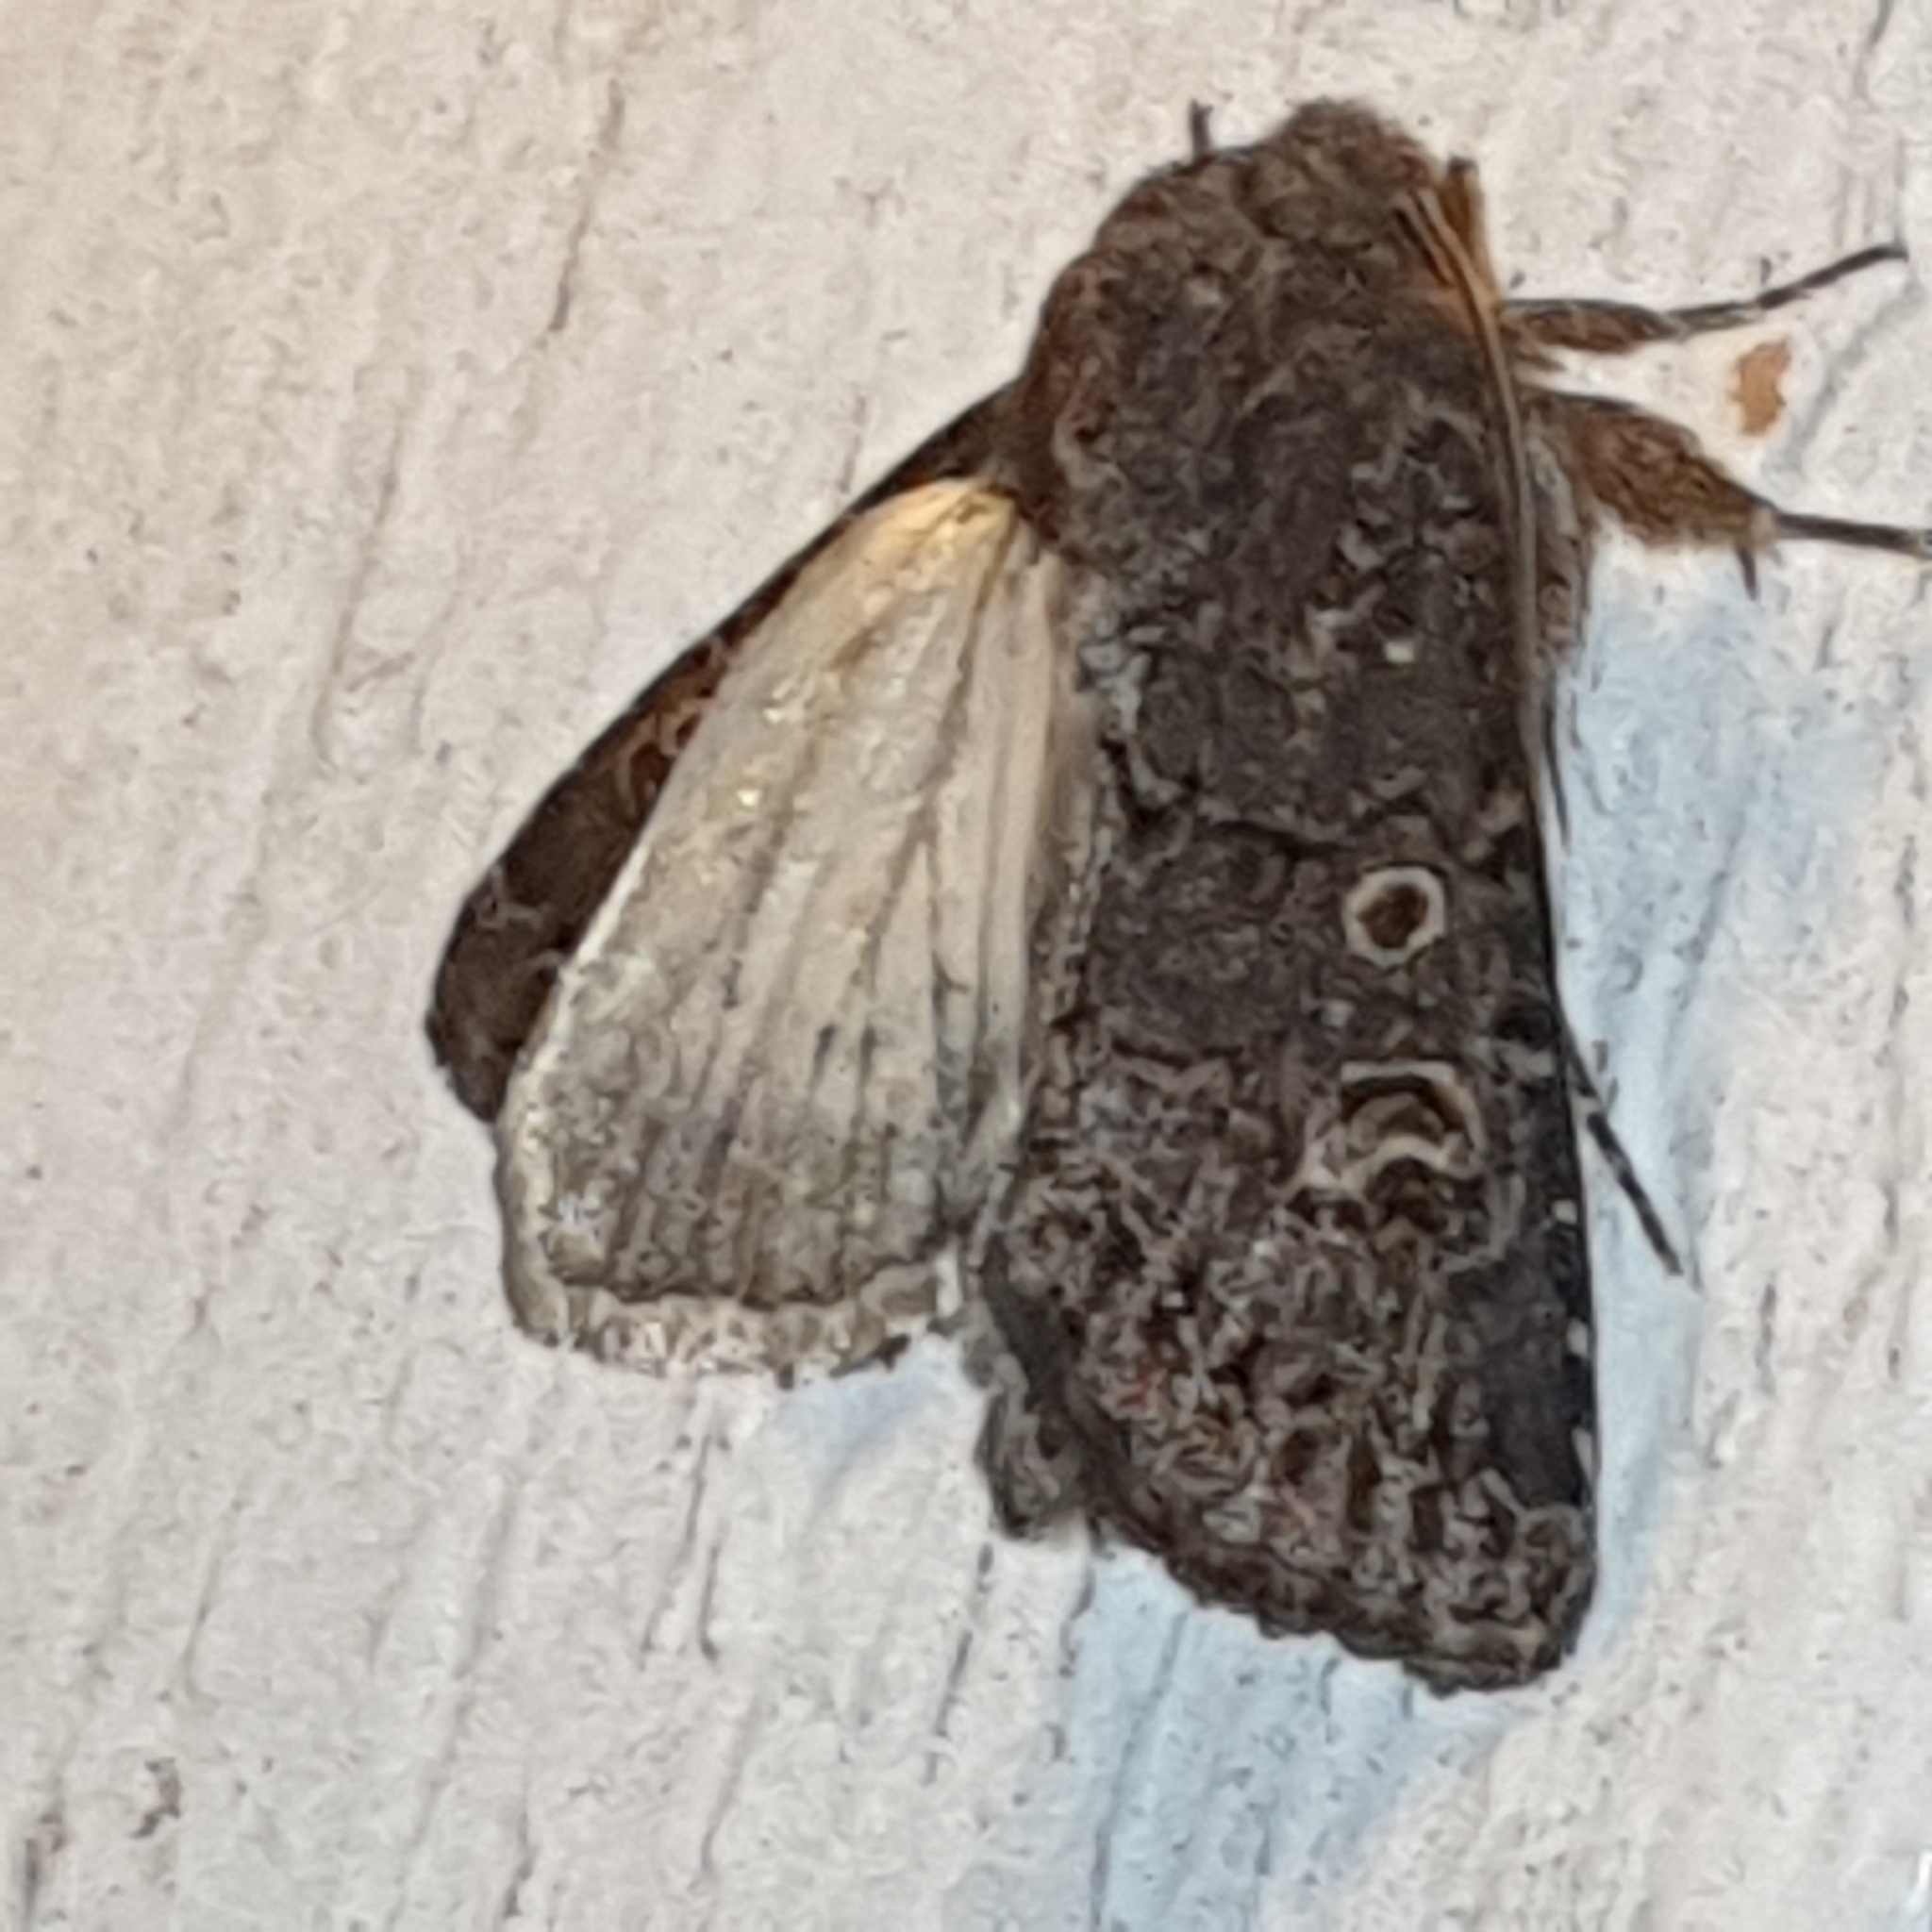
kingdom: Animalia
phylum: Arthropoda
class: Insecta
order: Lepidoptera
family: Noctuidae
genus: Tholera
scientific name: Tholera cespitis
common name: Hedge rustic
